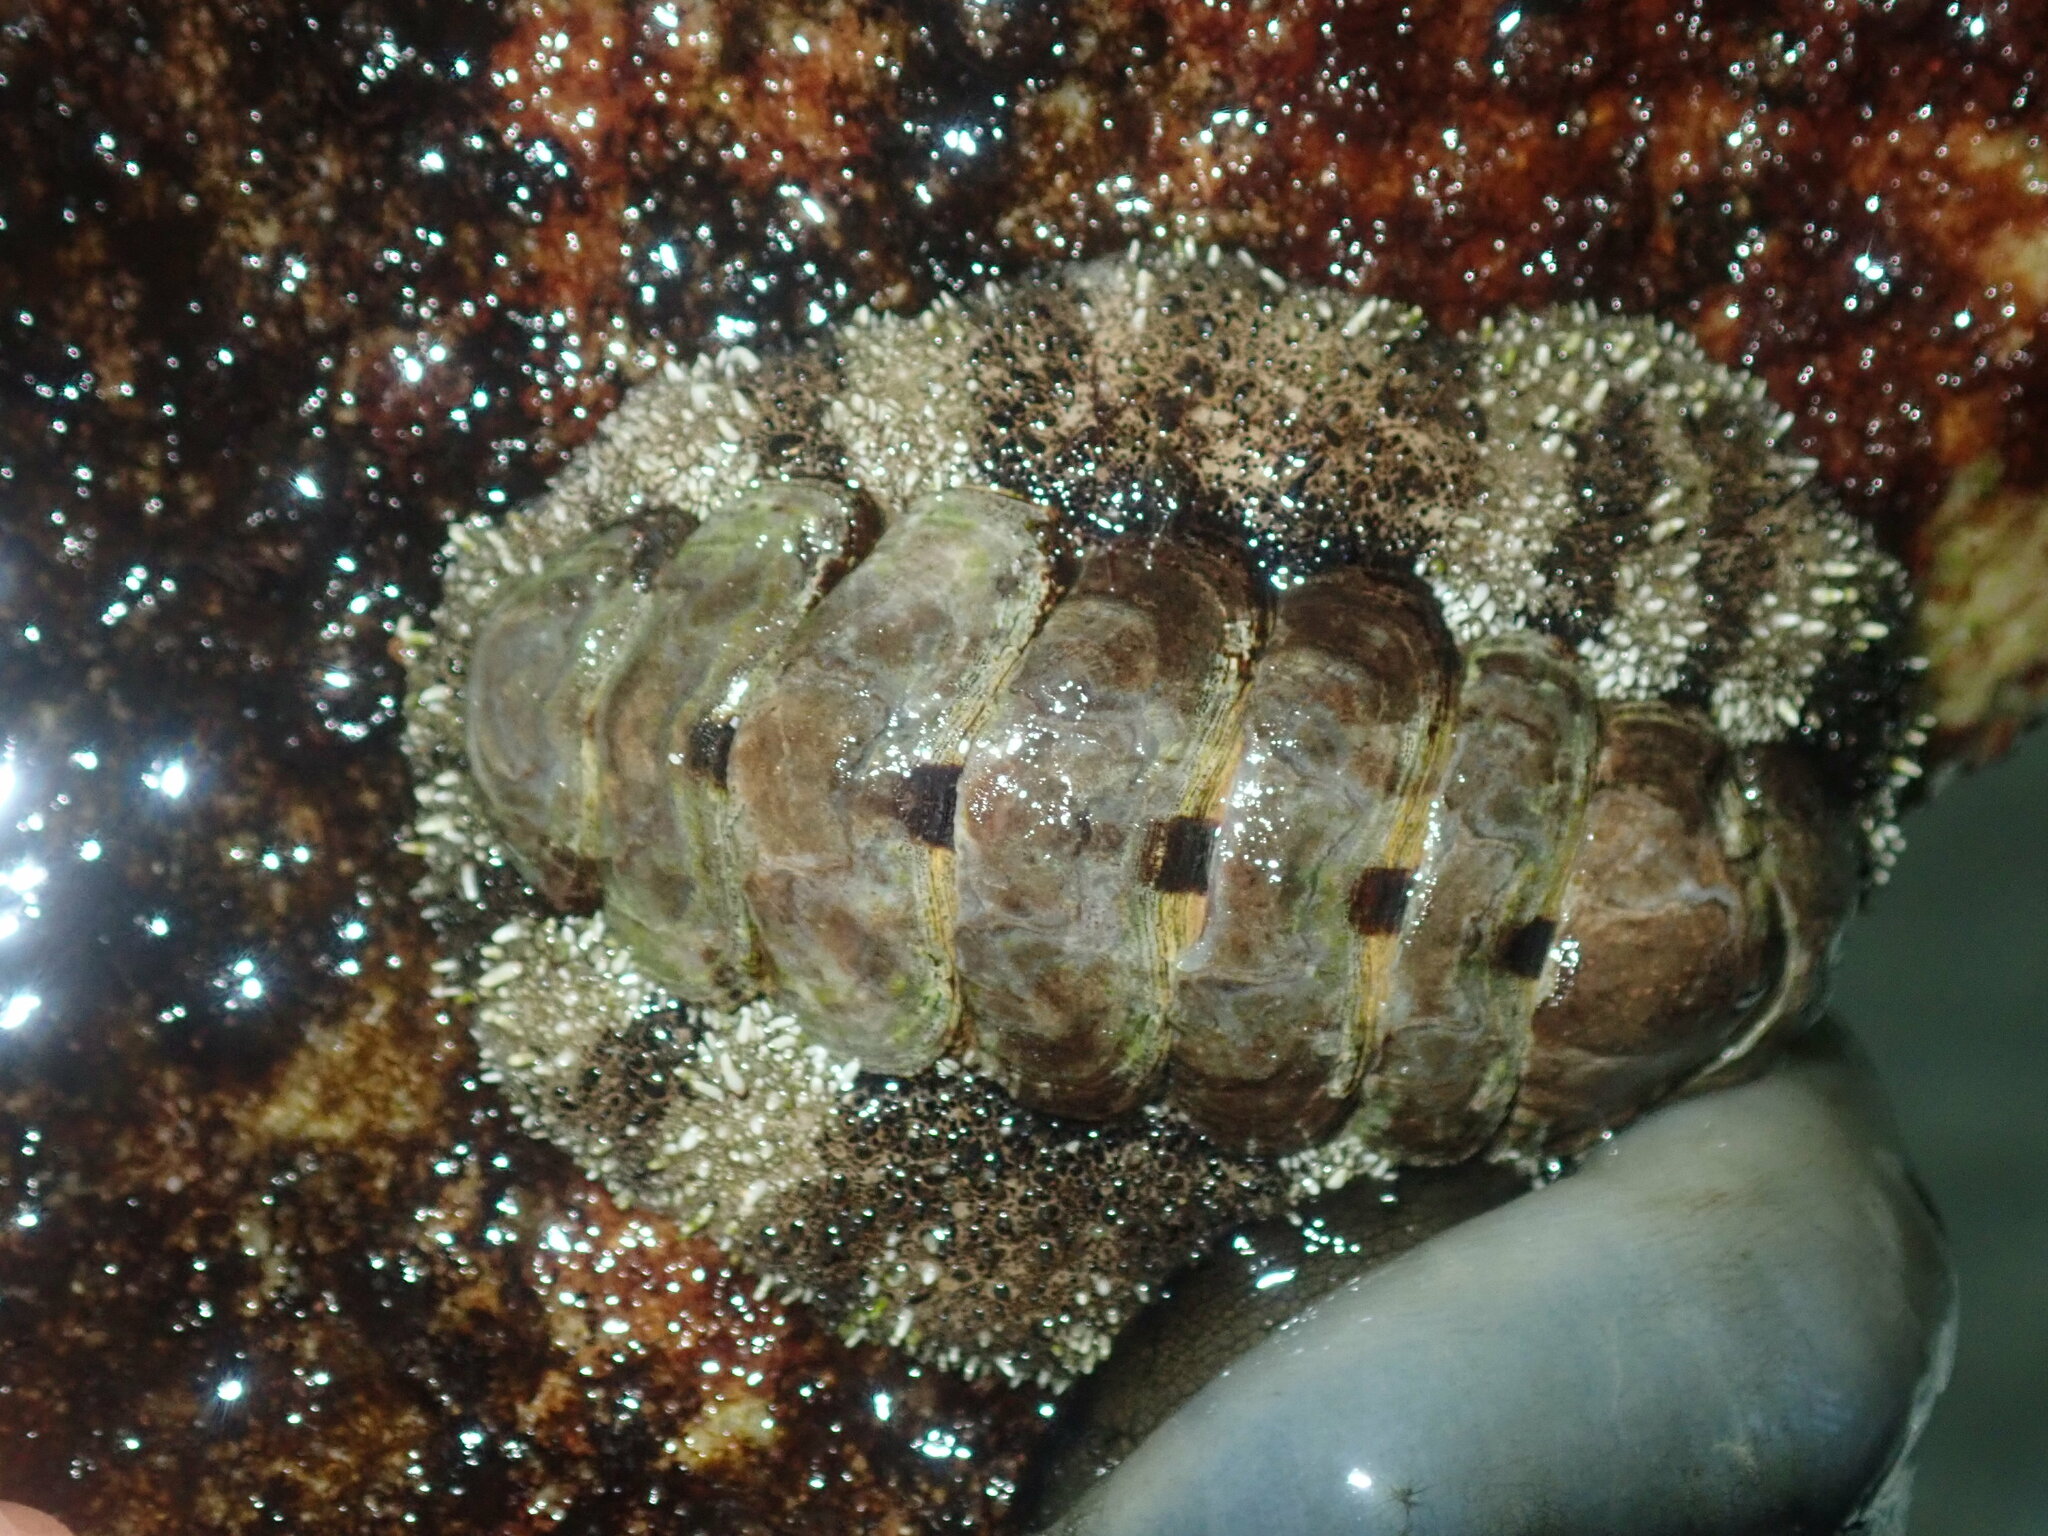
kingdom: Animalia
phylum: Mollusca
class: Polyplacophora
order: Chitonida
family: Chitonidae
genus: Liolophura
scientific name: Liolophura gaimardi
